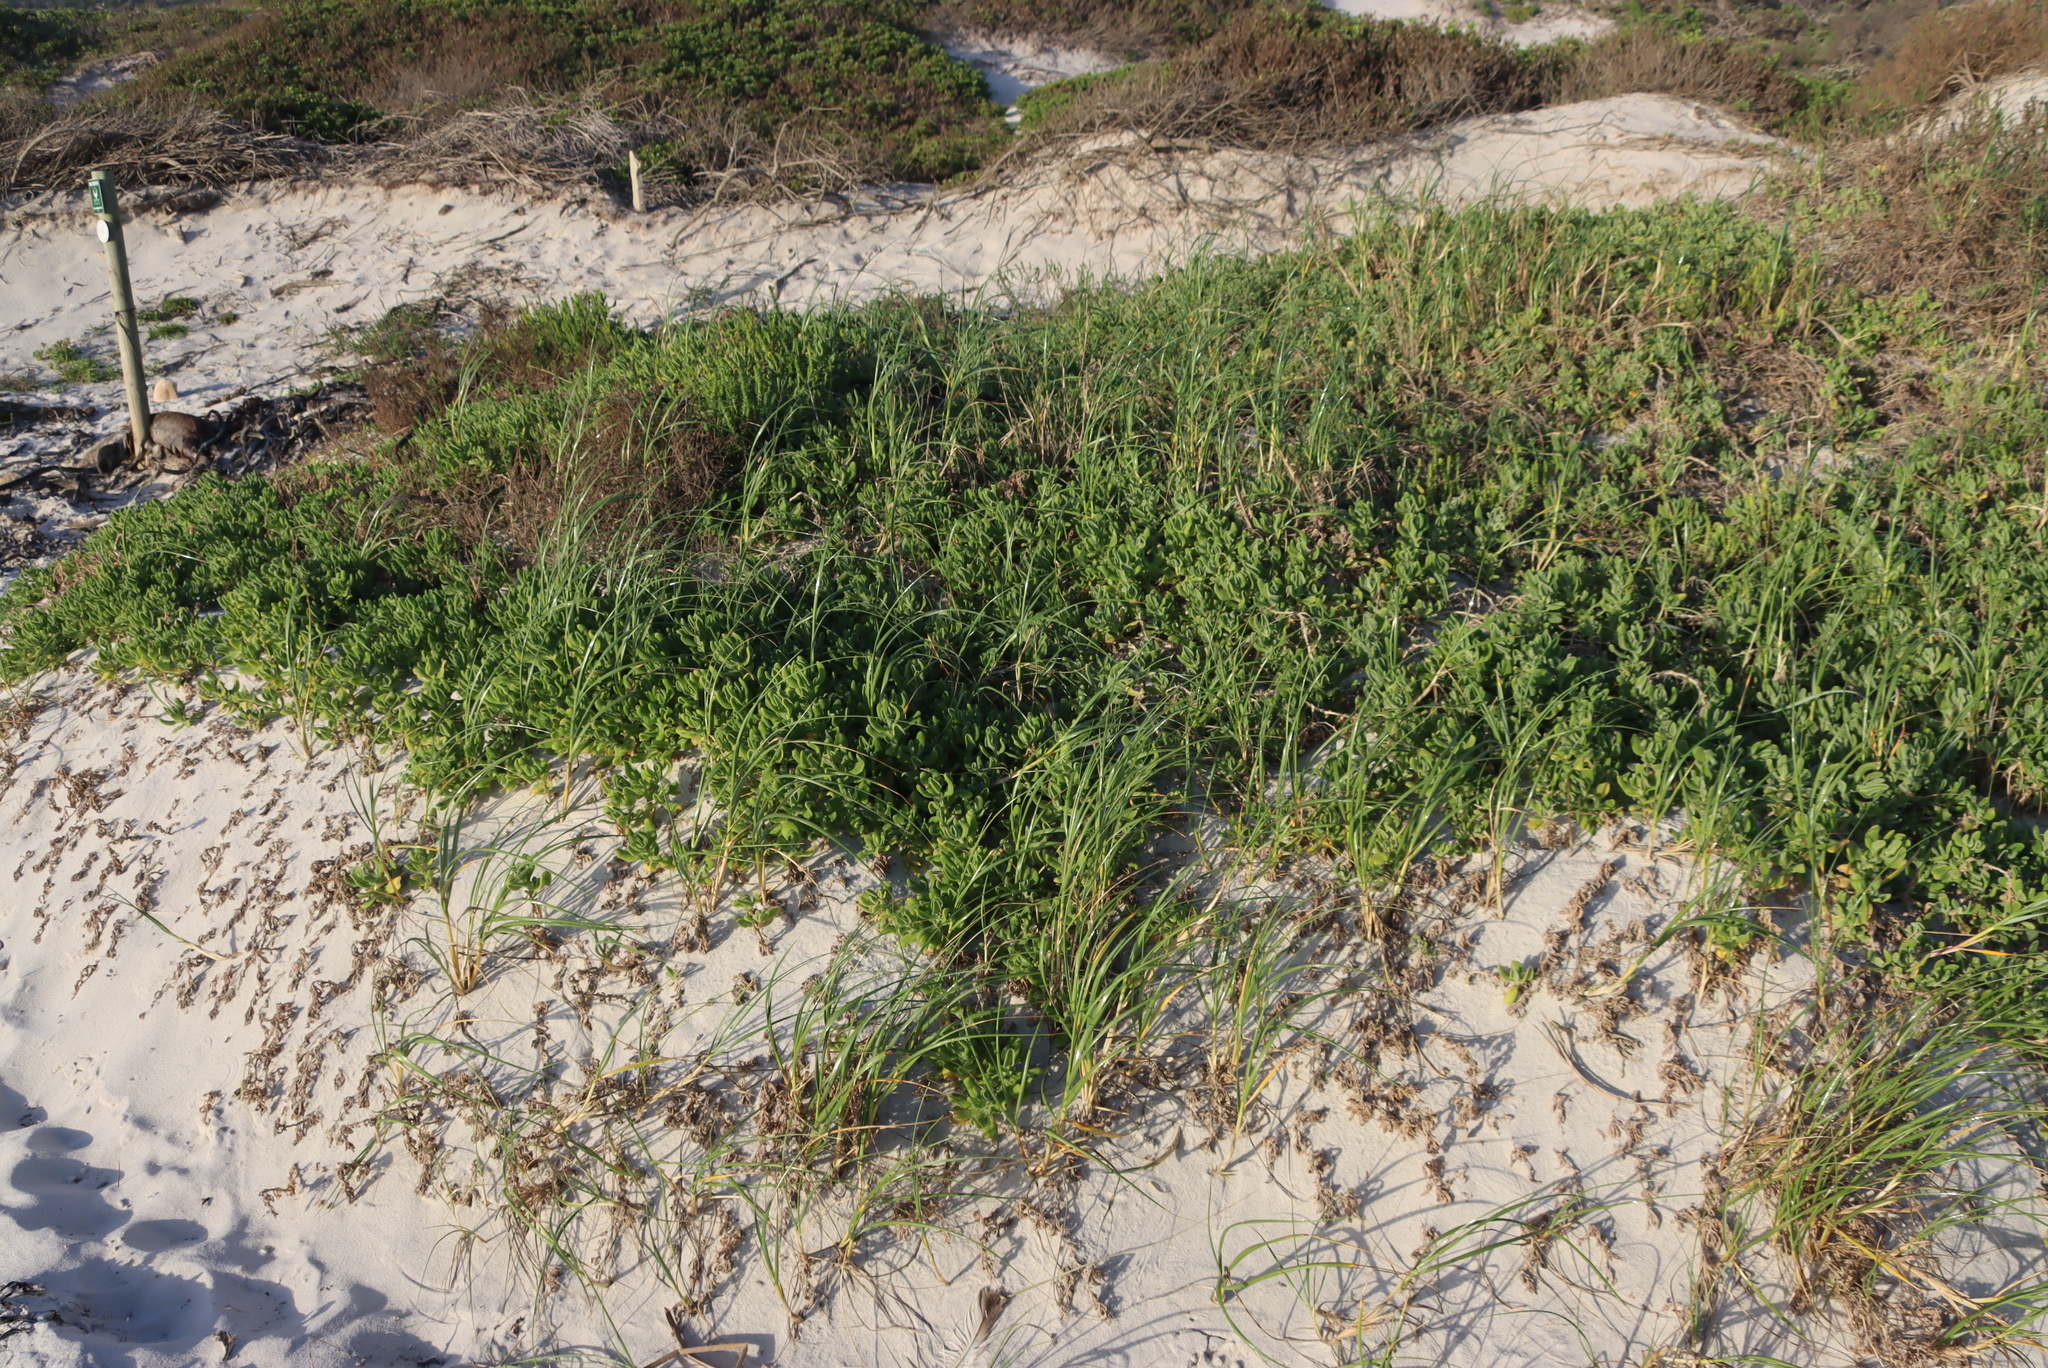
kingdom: Plantae
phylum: Tracheophyta
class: Liliopsida
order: Poales
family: Poaceae
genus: Thinopyrum
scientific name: Thinopyrum distichum
